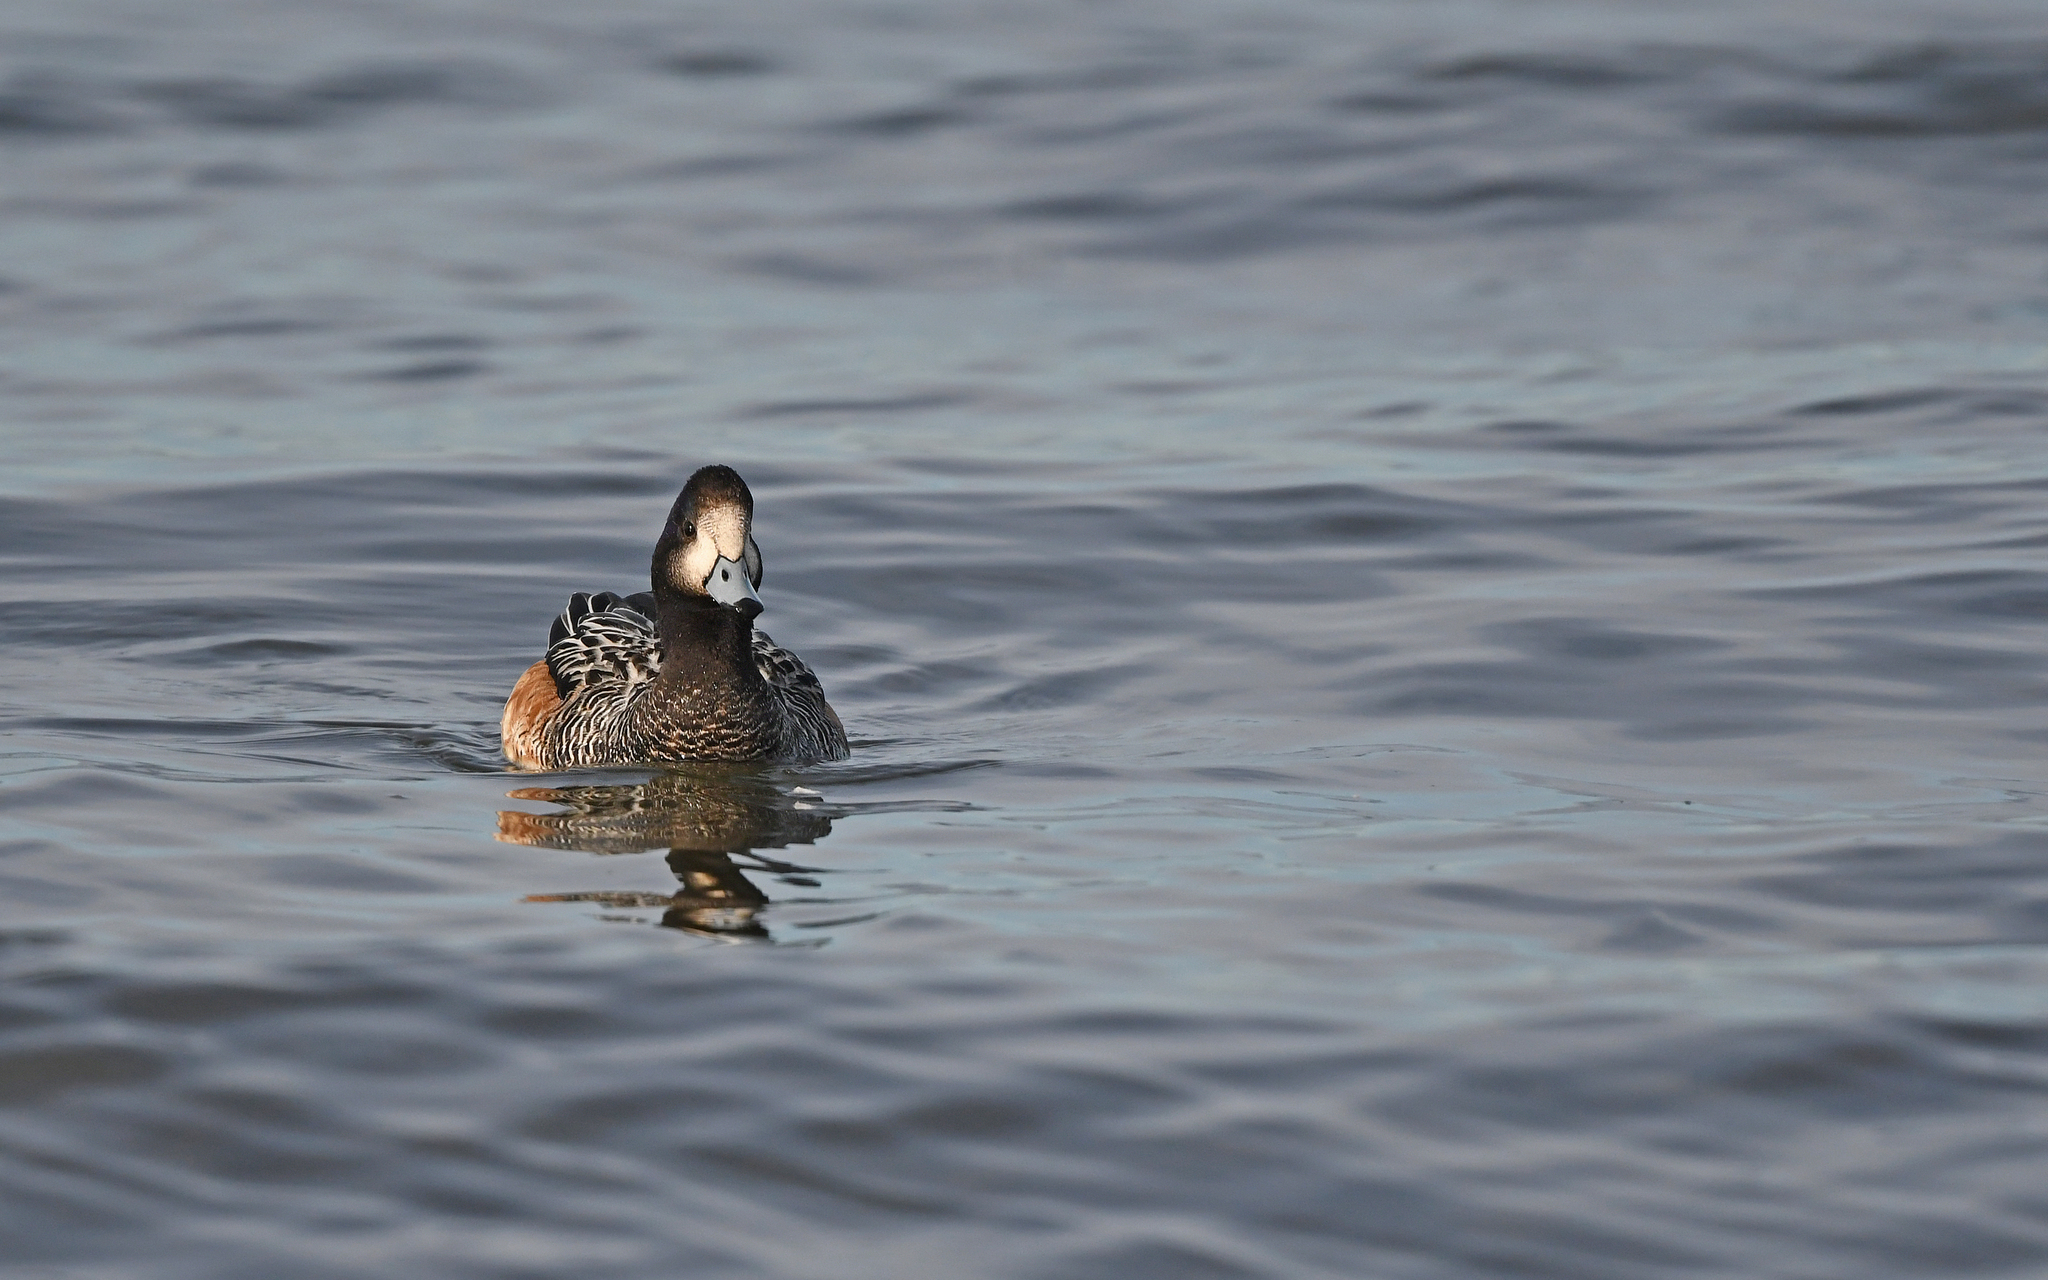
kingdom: Animalia
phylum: Chordata
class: Aves
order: Anseriformes
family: Anatidae
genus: Mareca
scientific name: Mareca sibilatrix
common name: Chiloe wigeon
